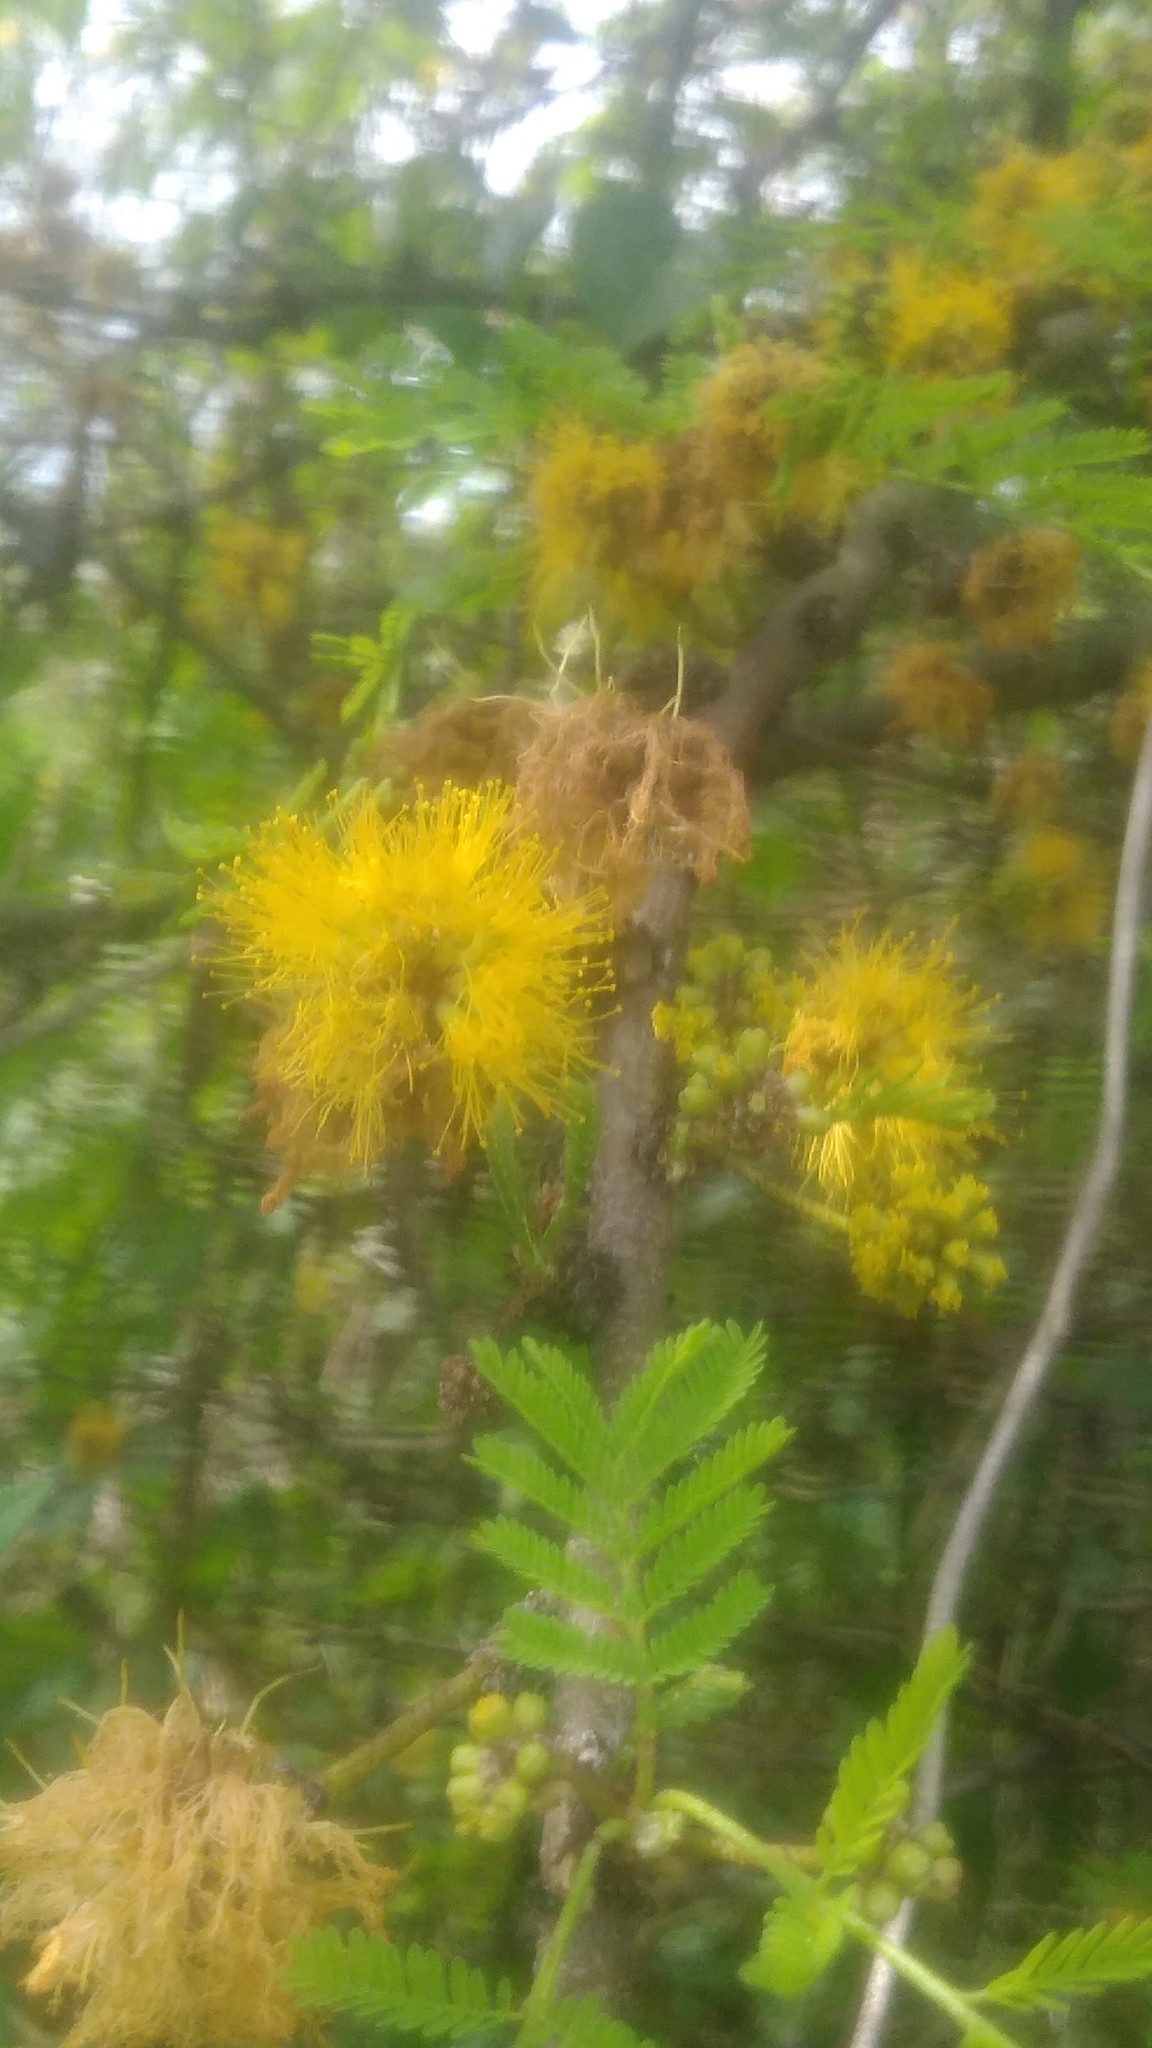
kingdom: Plantae
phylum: Tracheophyta
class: Magnoliopsida
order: Fabales
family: Fabaceae
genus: Vachellia
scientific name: Vachellia caven
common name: Roman cassie
